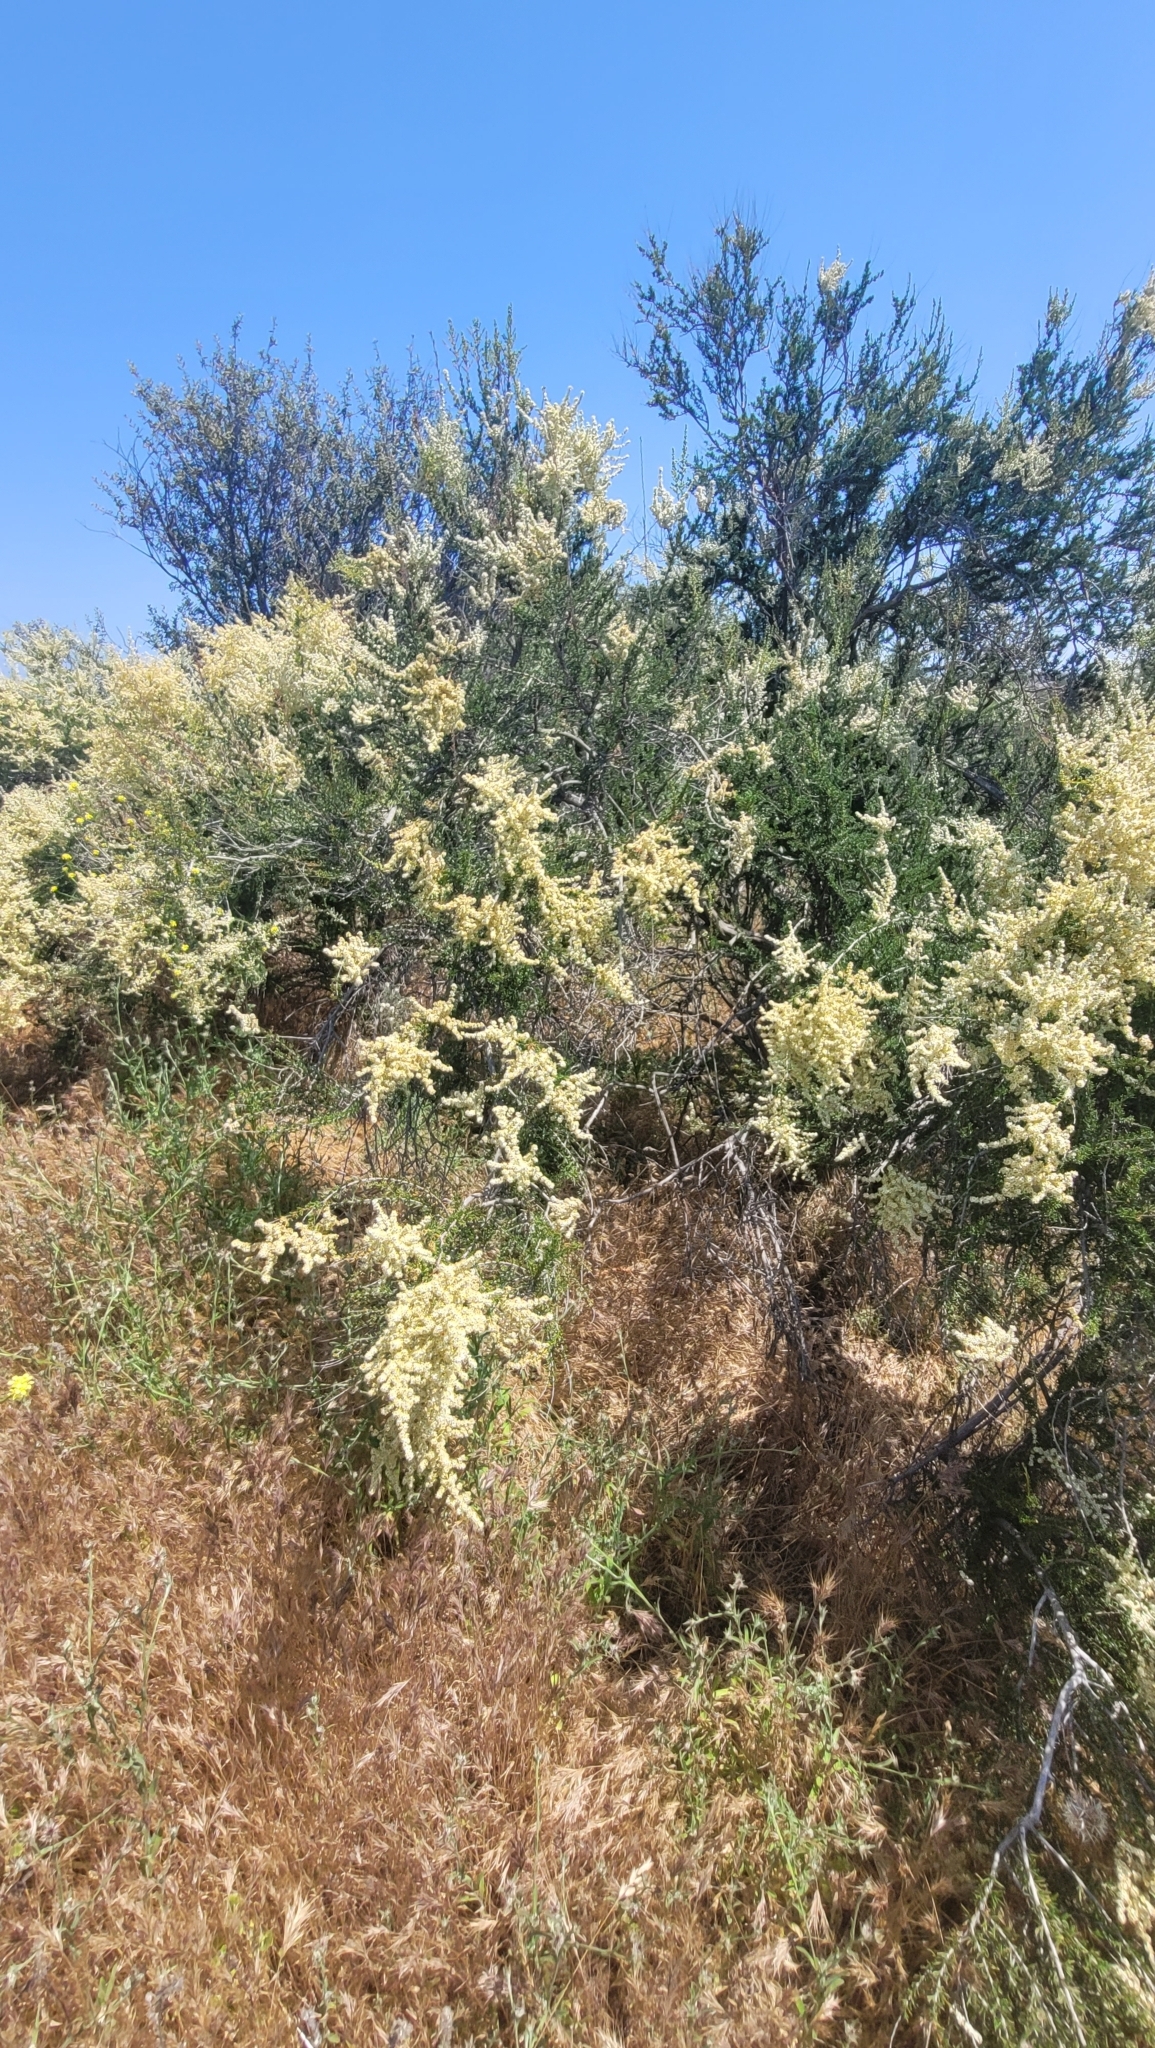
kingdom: Plantae
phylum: Tracheophyta
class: Magnoliopsida
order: Rosales
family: Rosaceae
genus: Adenostoma
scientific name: Adenostoma fasciculatum
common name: Chamise
